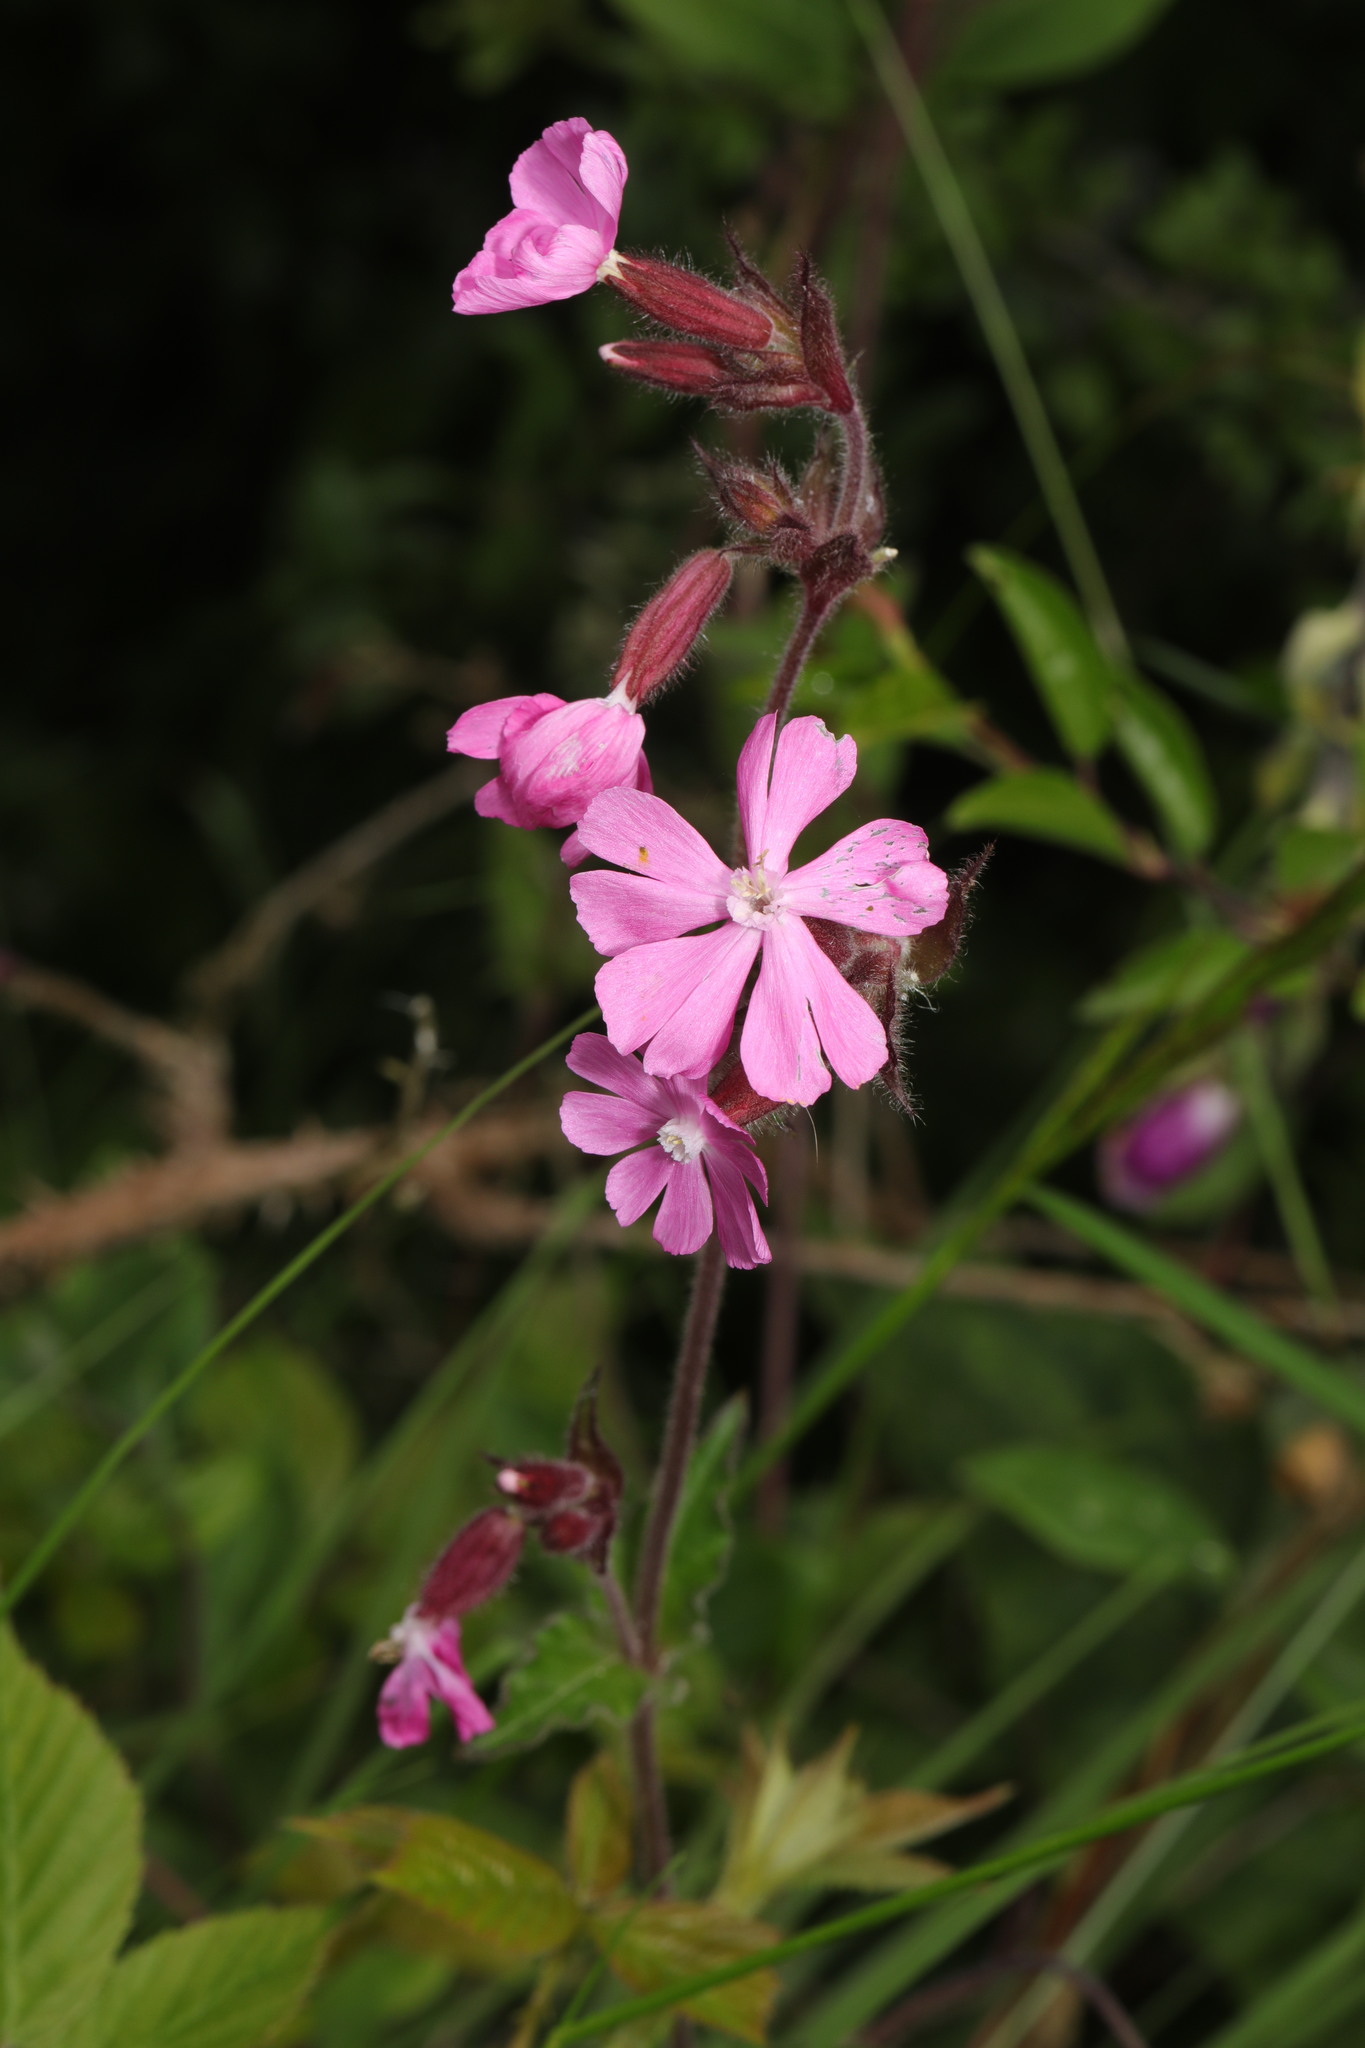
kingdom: Plantae
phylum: Tracheophyta
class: Magnoliopsida
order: Caryophyllales
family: Caryophyllaceae
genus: Silene
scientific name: Silene dioica
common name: Red campion
